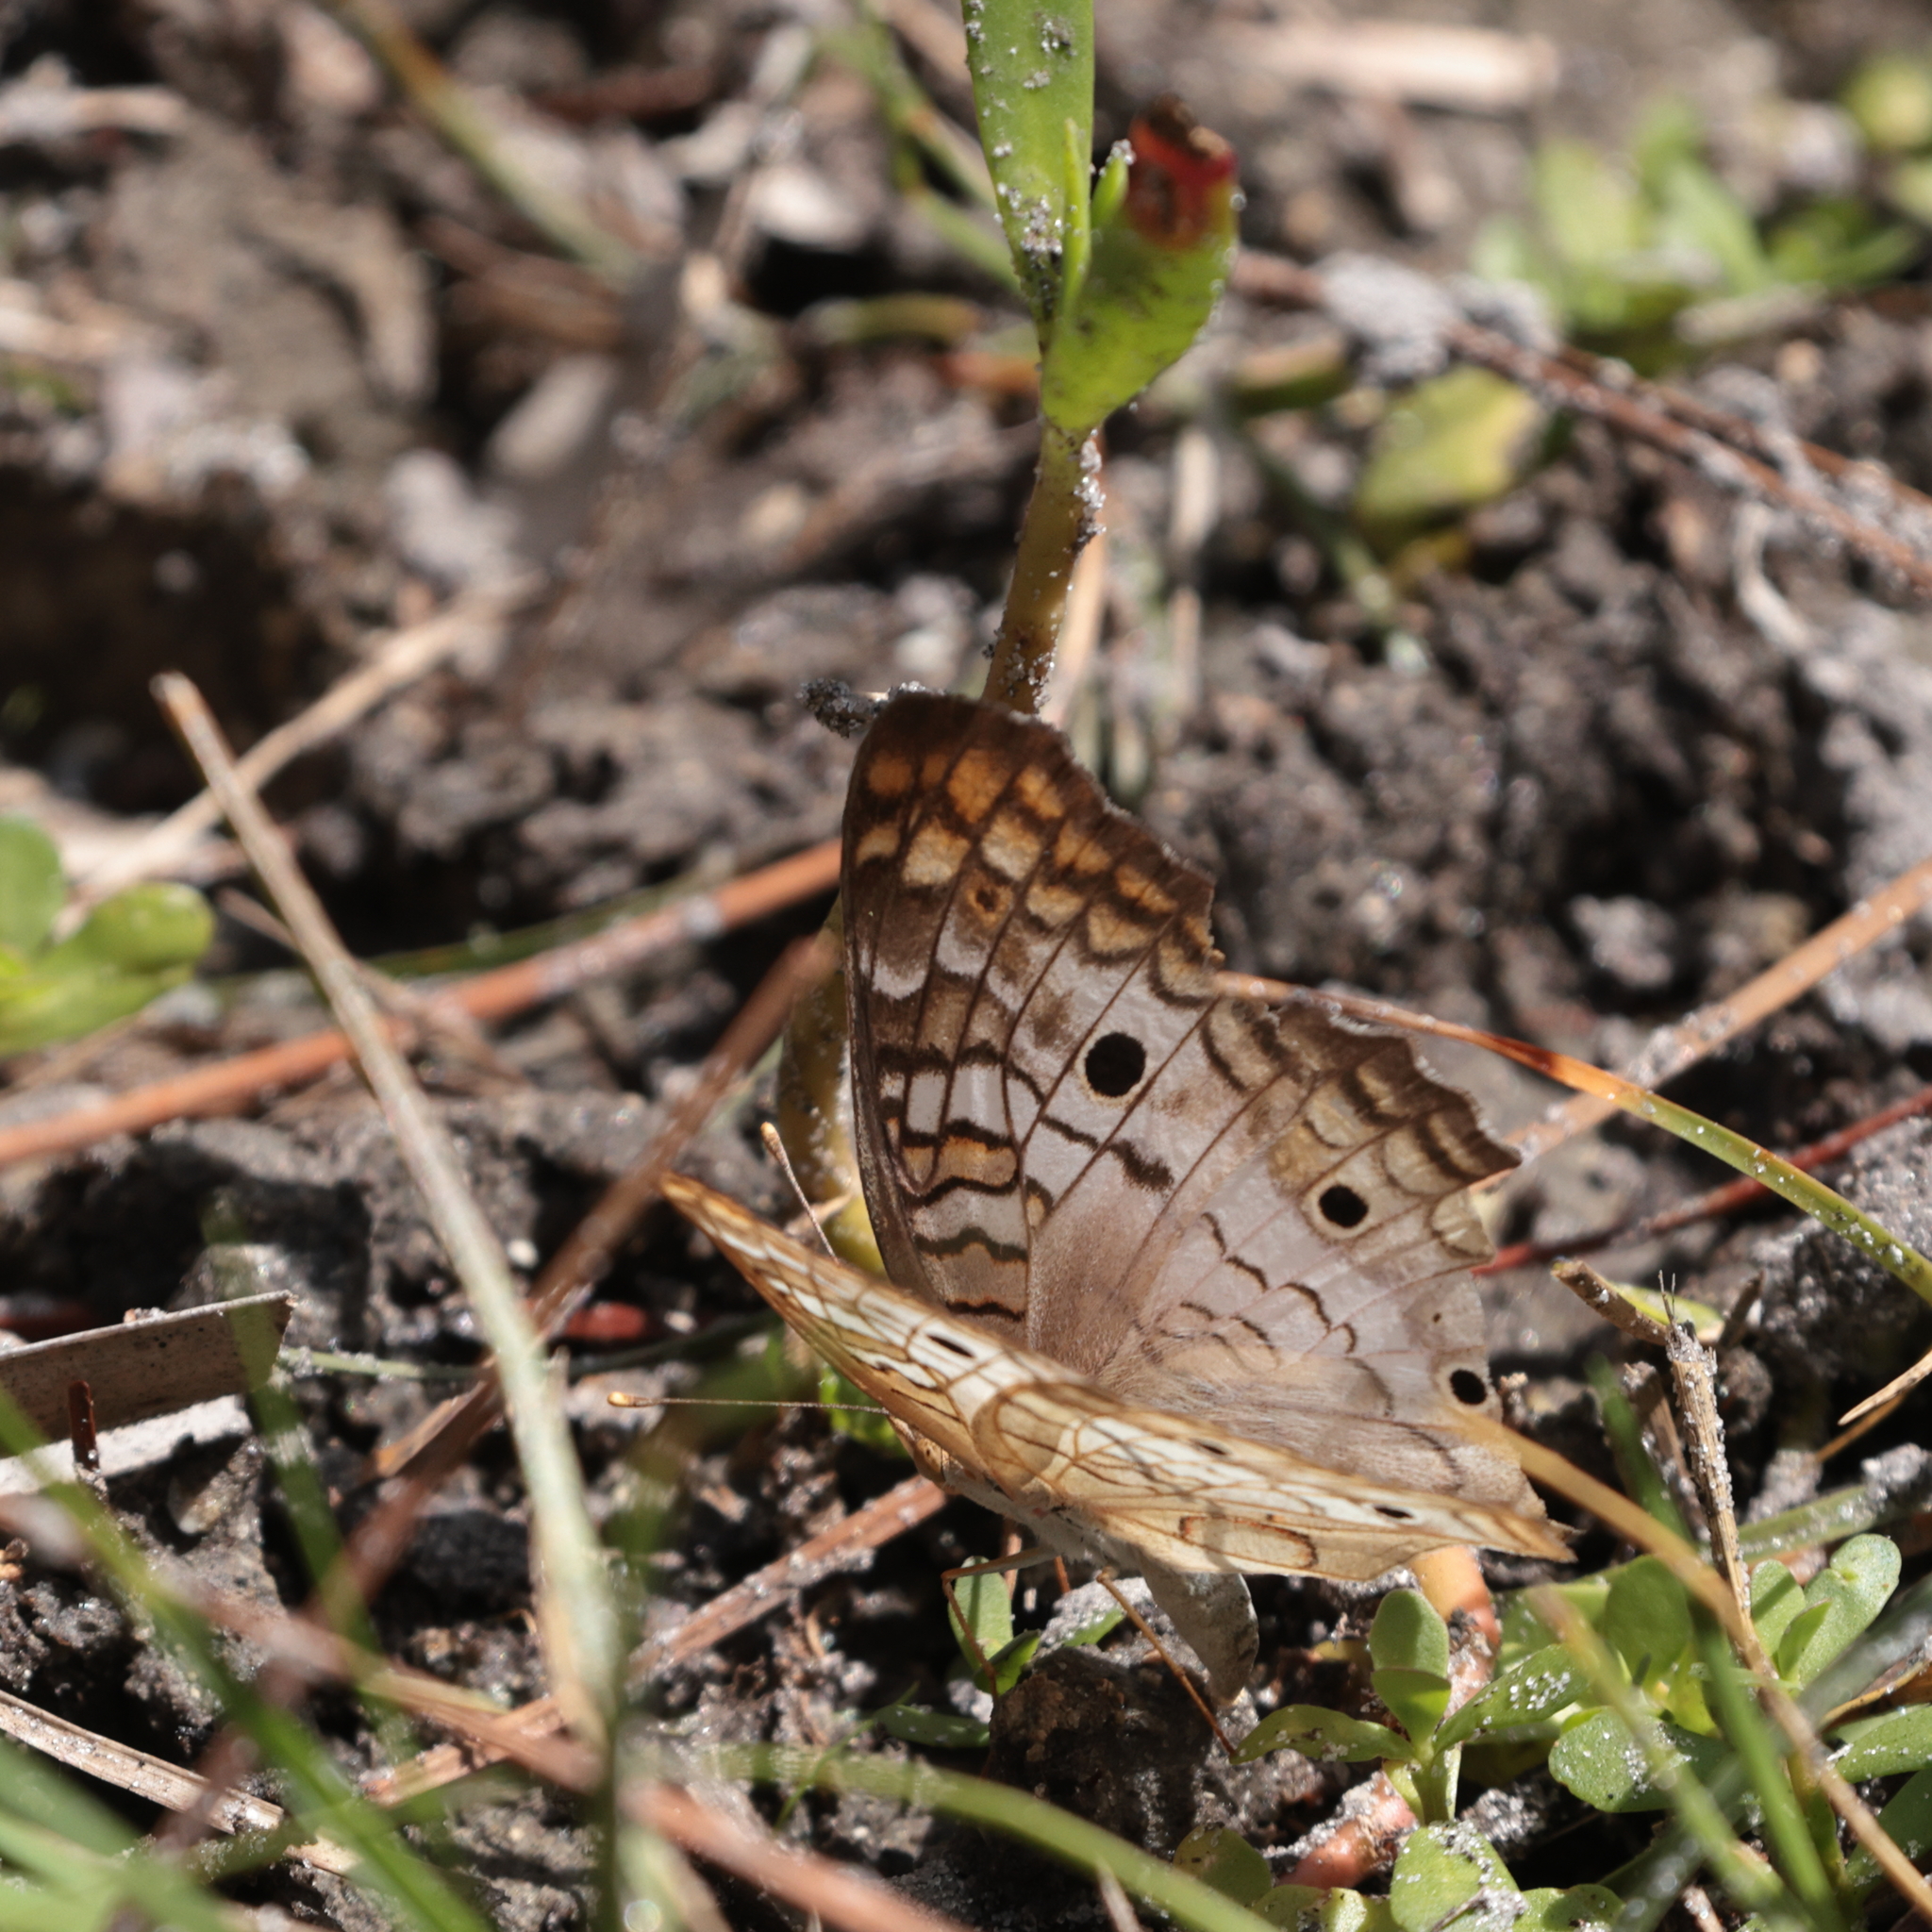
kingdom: Animalia
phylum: Arthropoda
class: Insecta
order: Lepidoptera
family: Nymphalidae
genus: Anartia
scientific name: Anartia jatrophae
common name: White peacock
